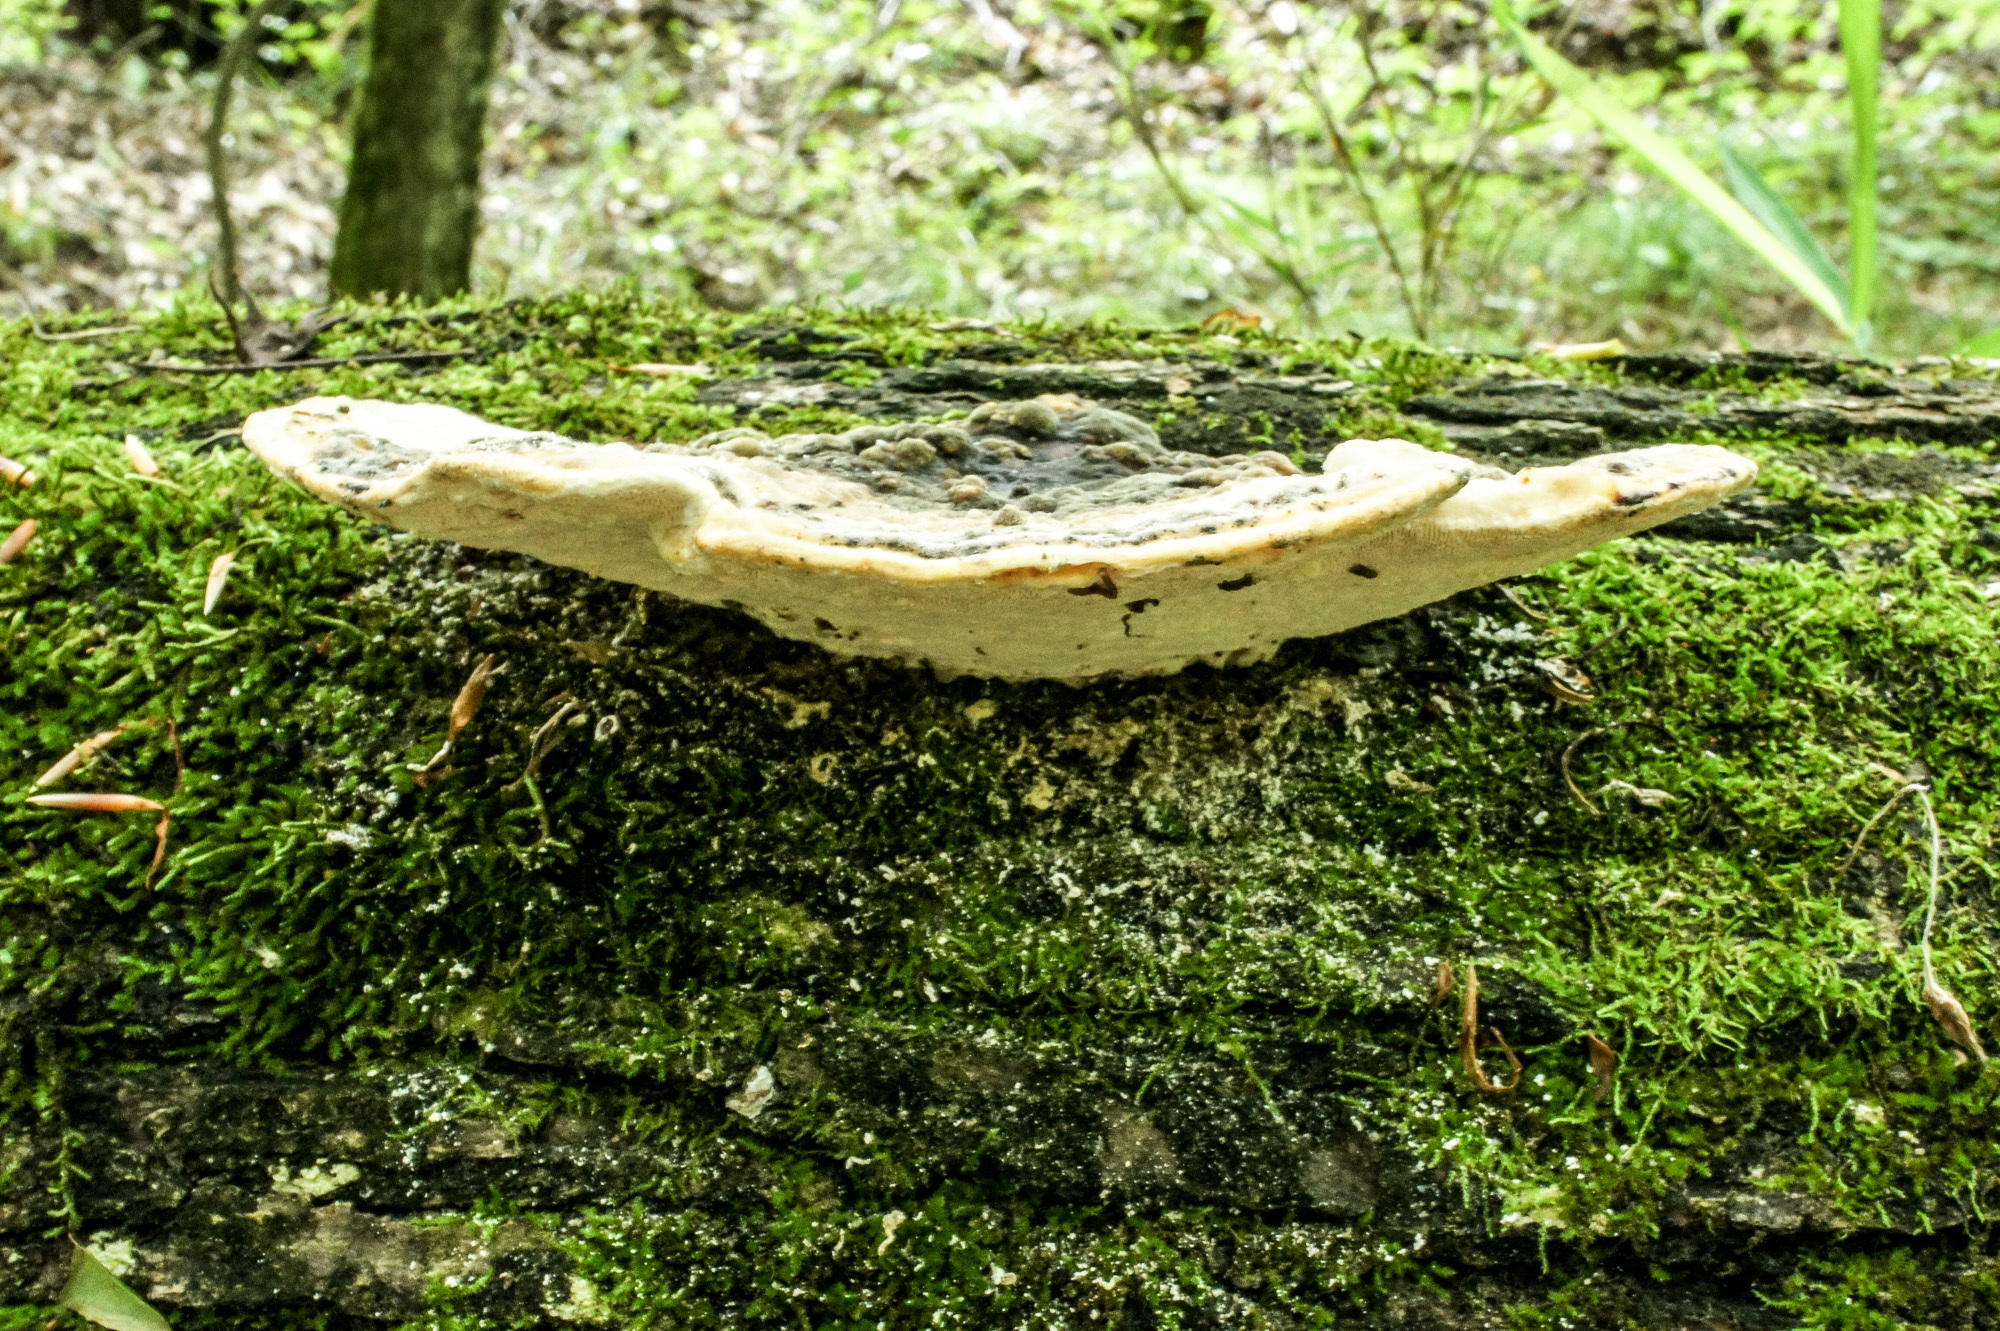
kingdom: Fungi
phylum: Basidiomycota
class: Agaricomycetes
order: Polyporales
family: Polyporaceae
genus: Trametes
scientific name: Trametes gibbosa
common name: Lumpy bracket
